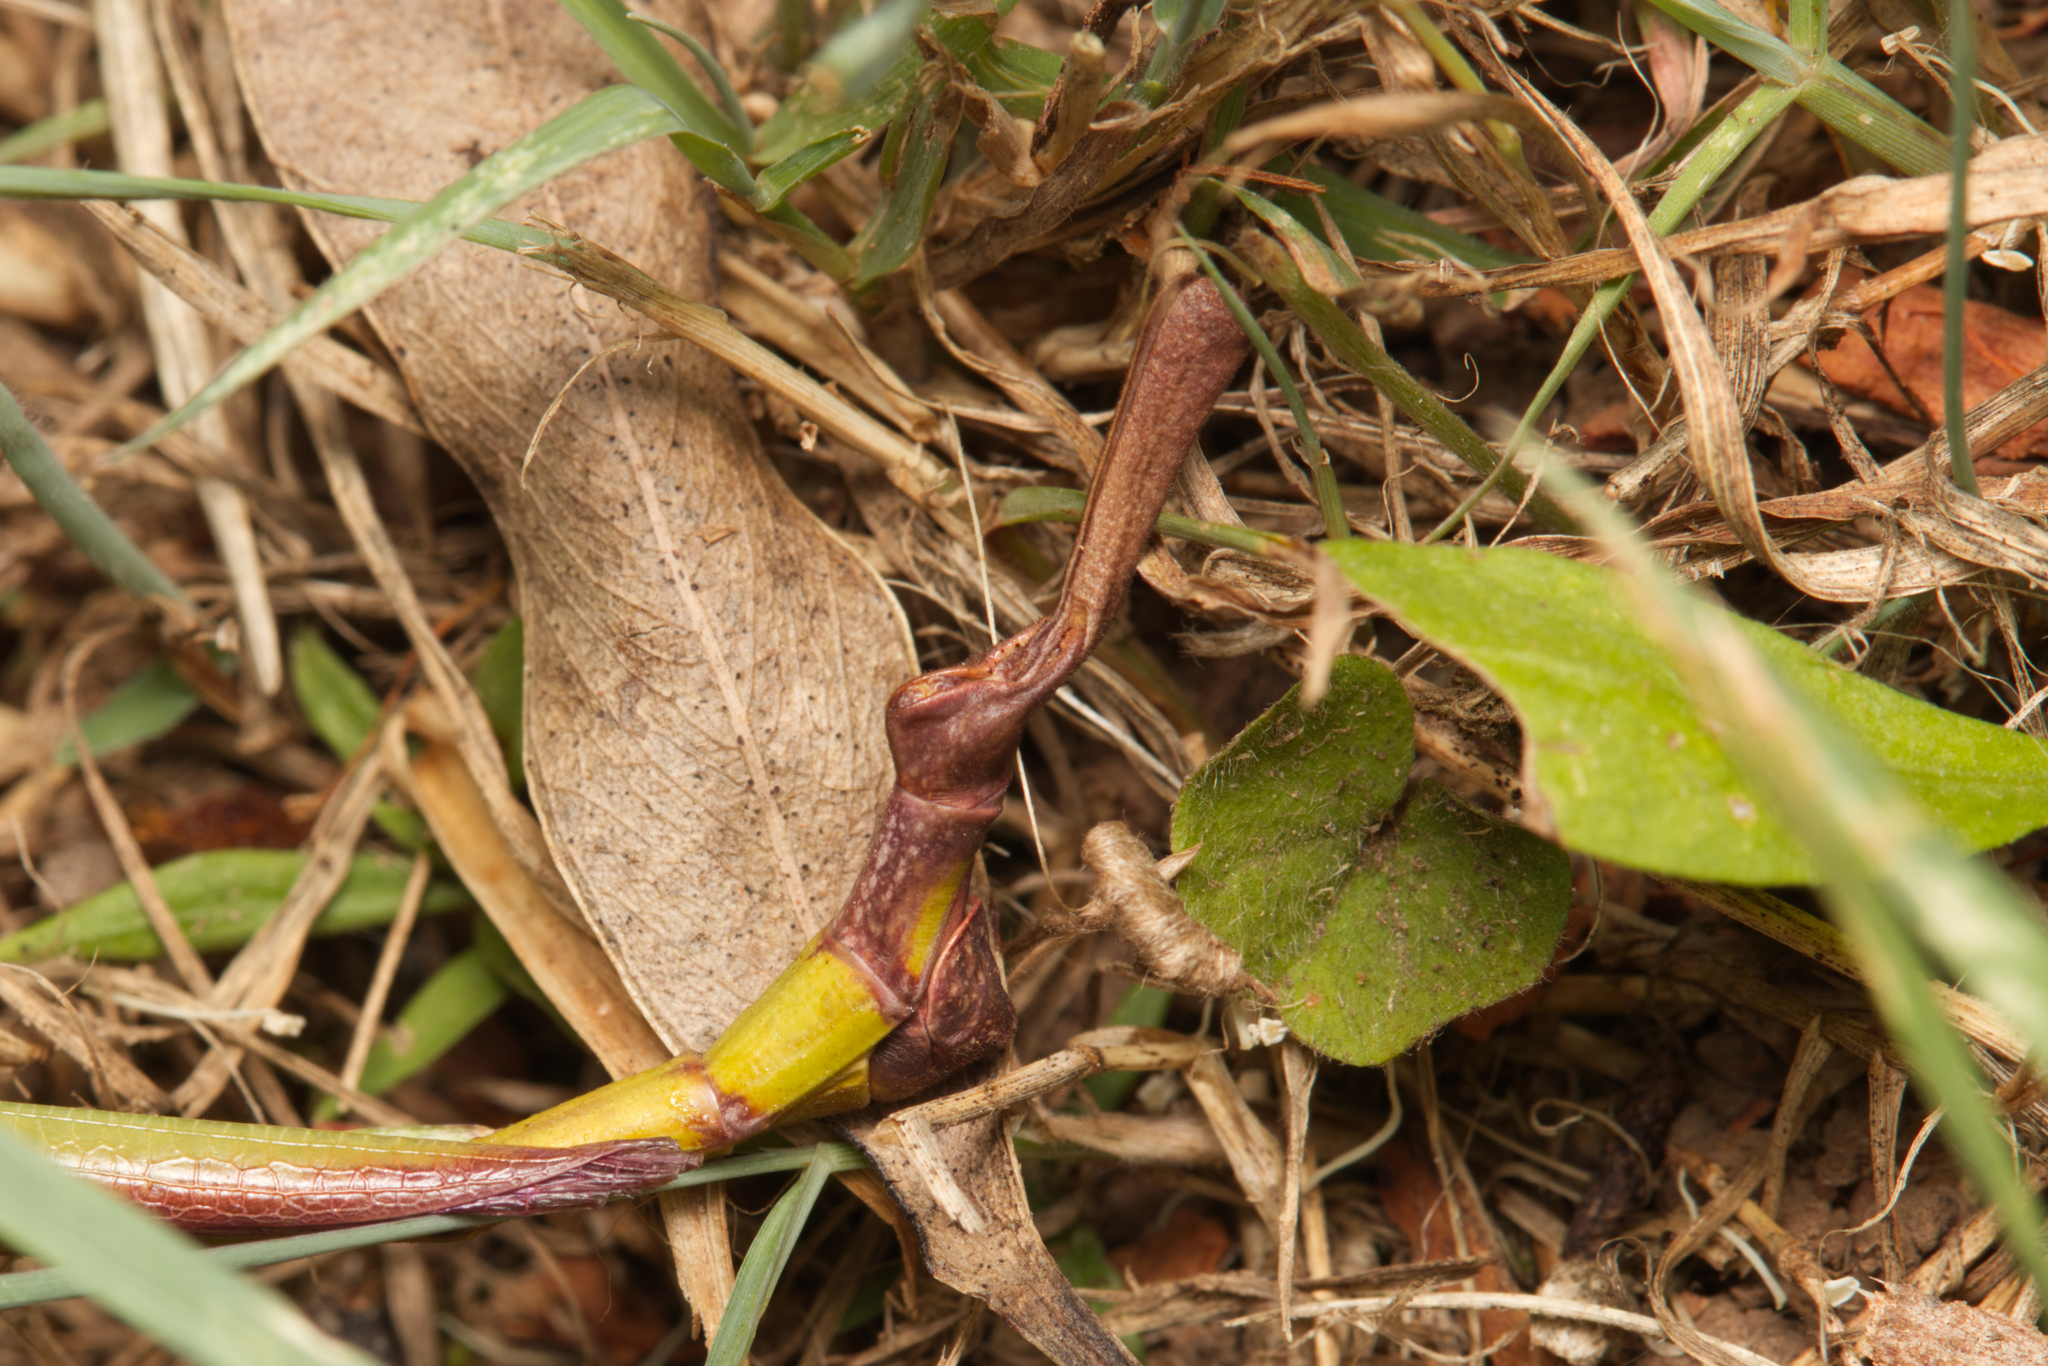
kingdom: Animalia
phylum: Arthropoda
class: Insecta
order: Phasmida
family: Phasmatidae
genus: Podacanthus
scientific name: Podacanthus viridiroseus
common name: Red-winged stick-insect
